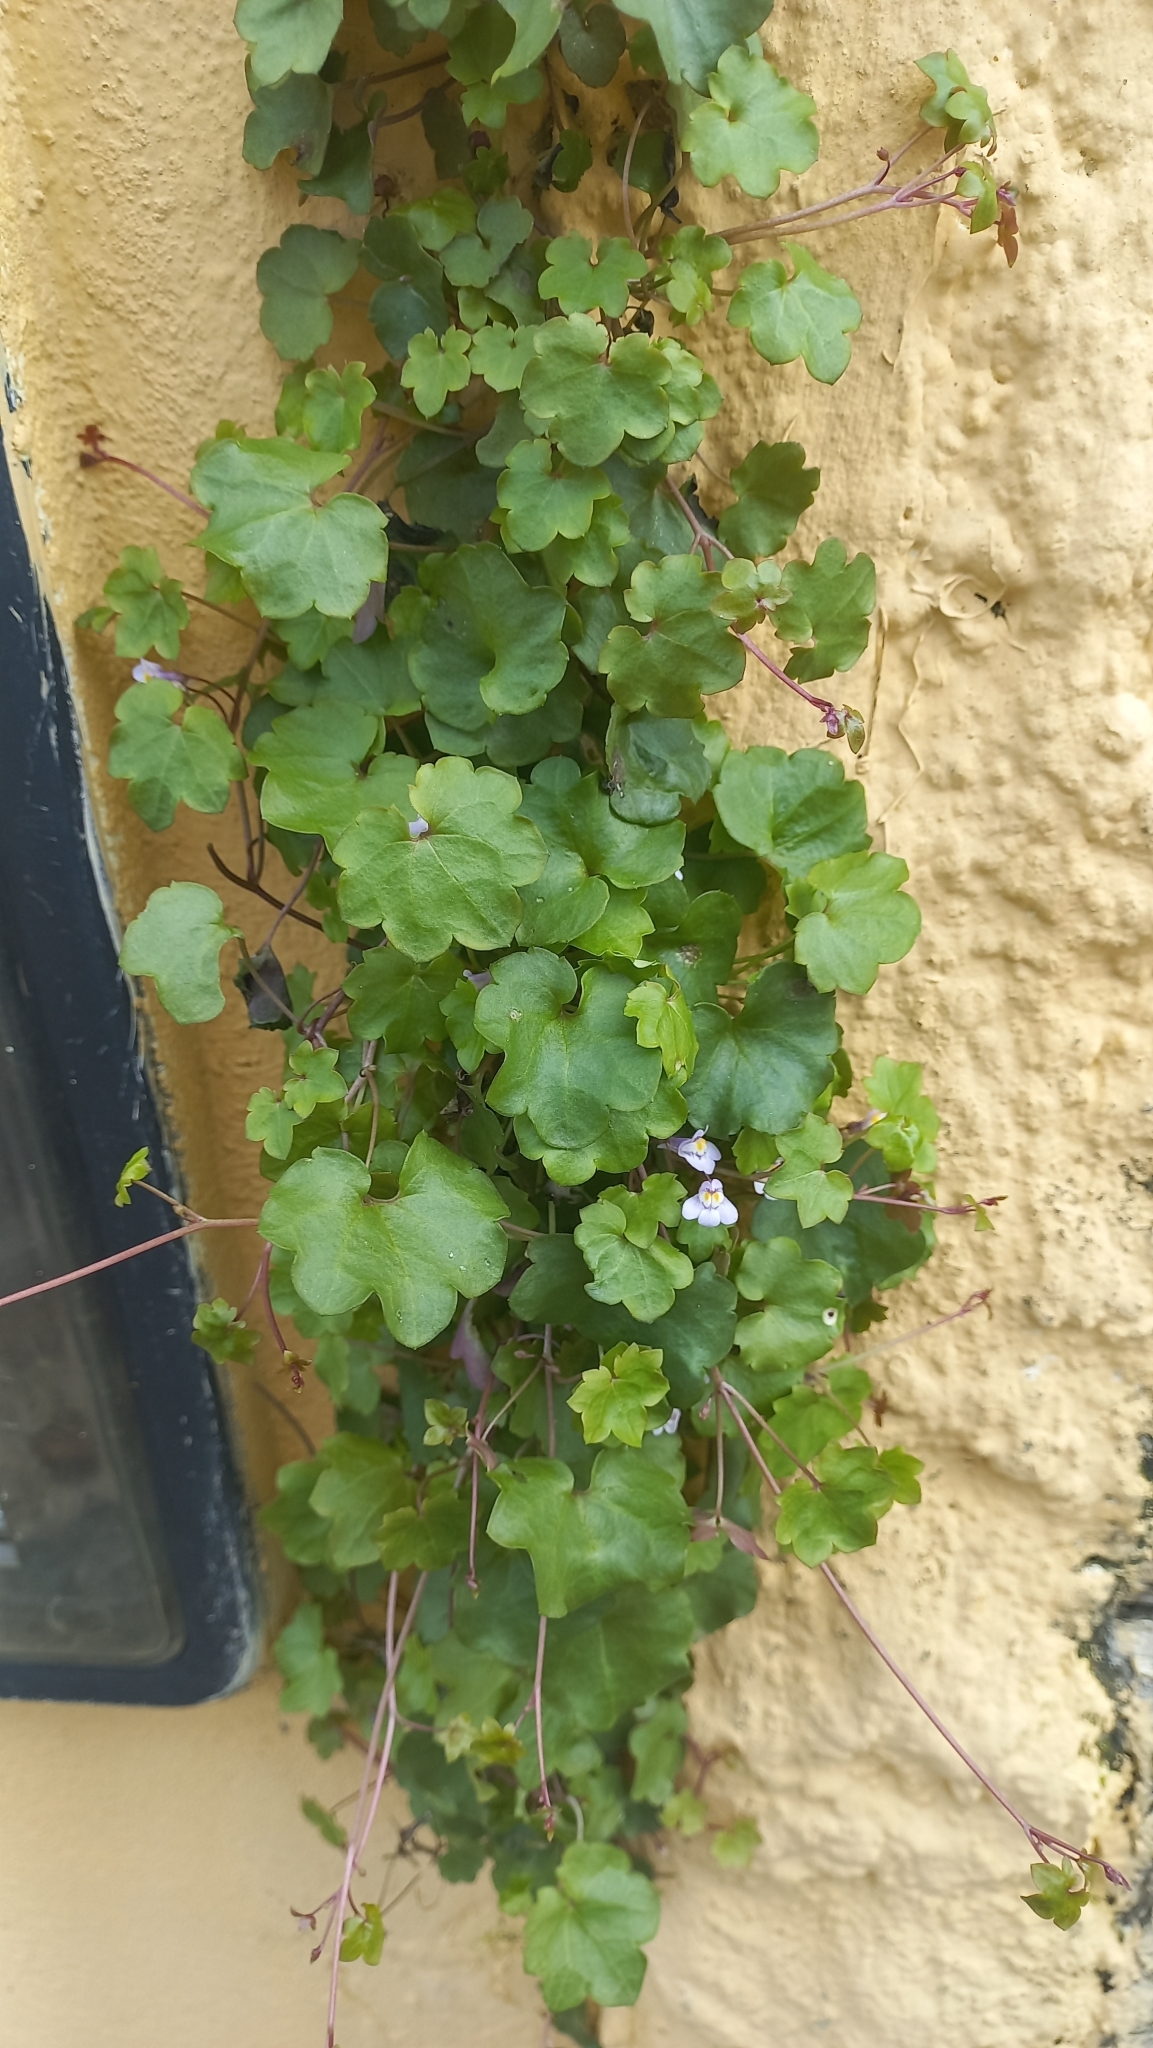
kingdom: Plantae
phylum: Tracheophyta
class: Magnoliopsida
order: Lamiales
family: Plantaginaceae
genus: Cymbalaria
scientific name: Cymbalaria muralis
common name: Ivy-leaved toadflax
